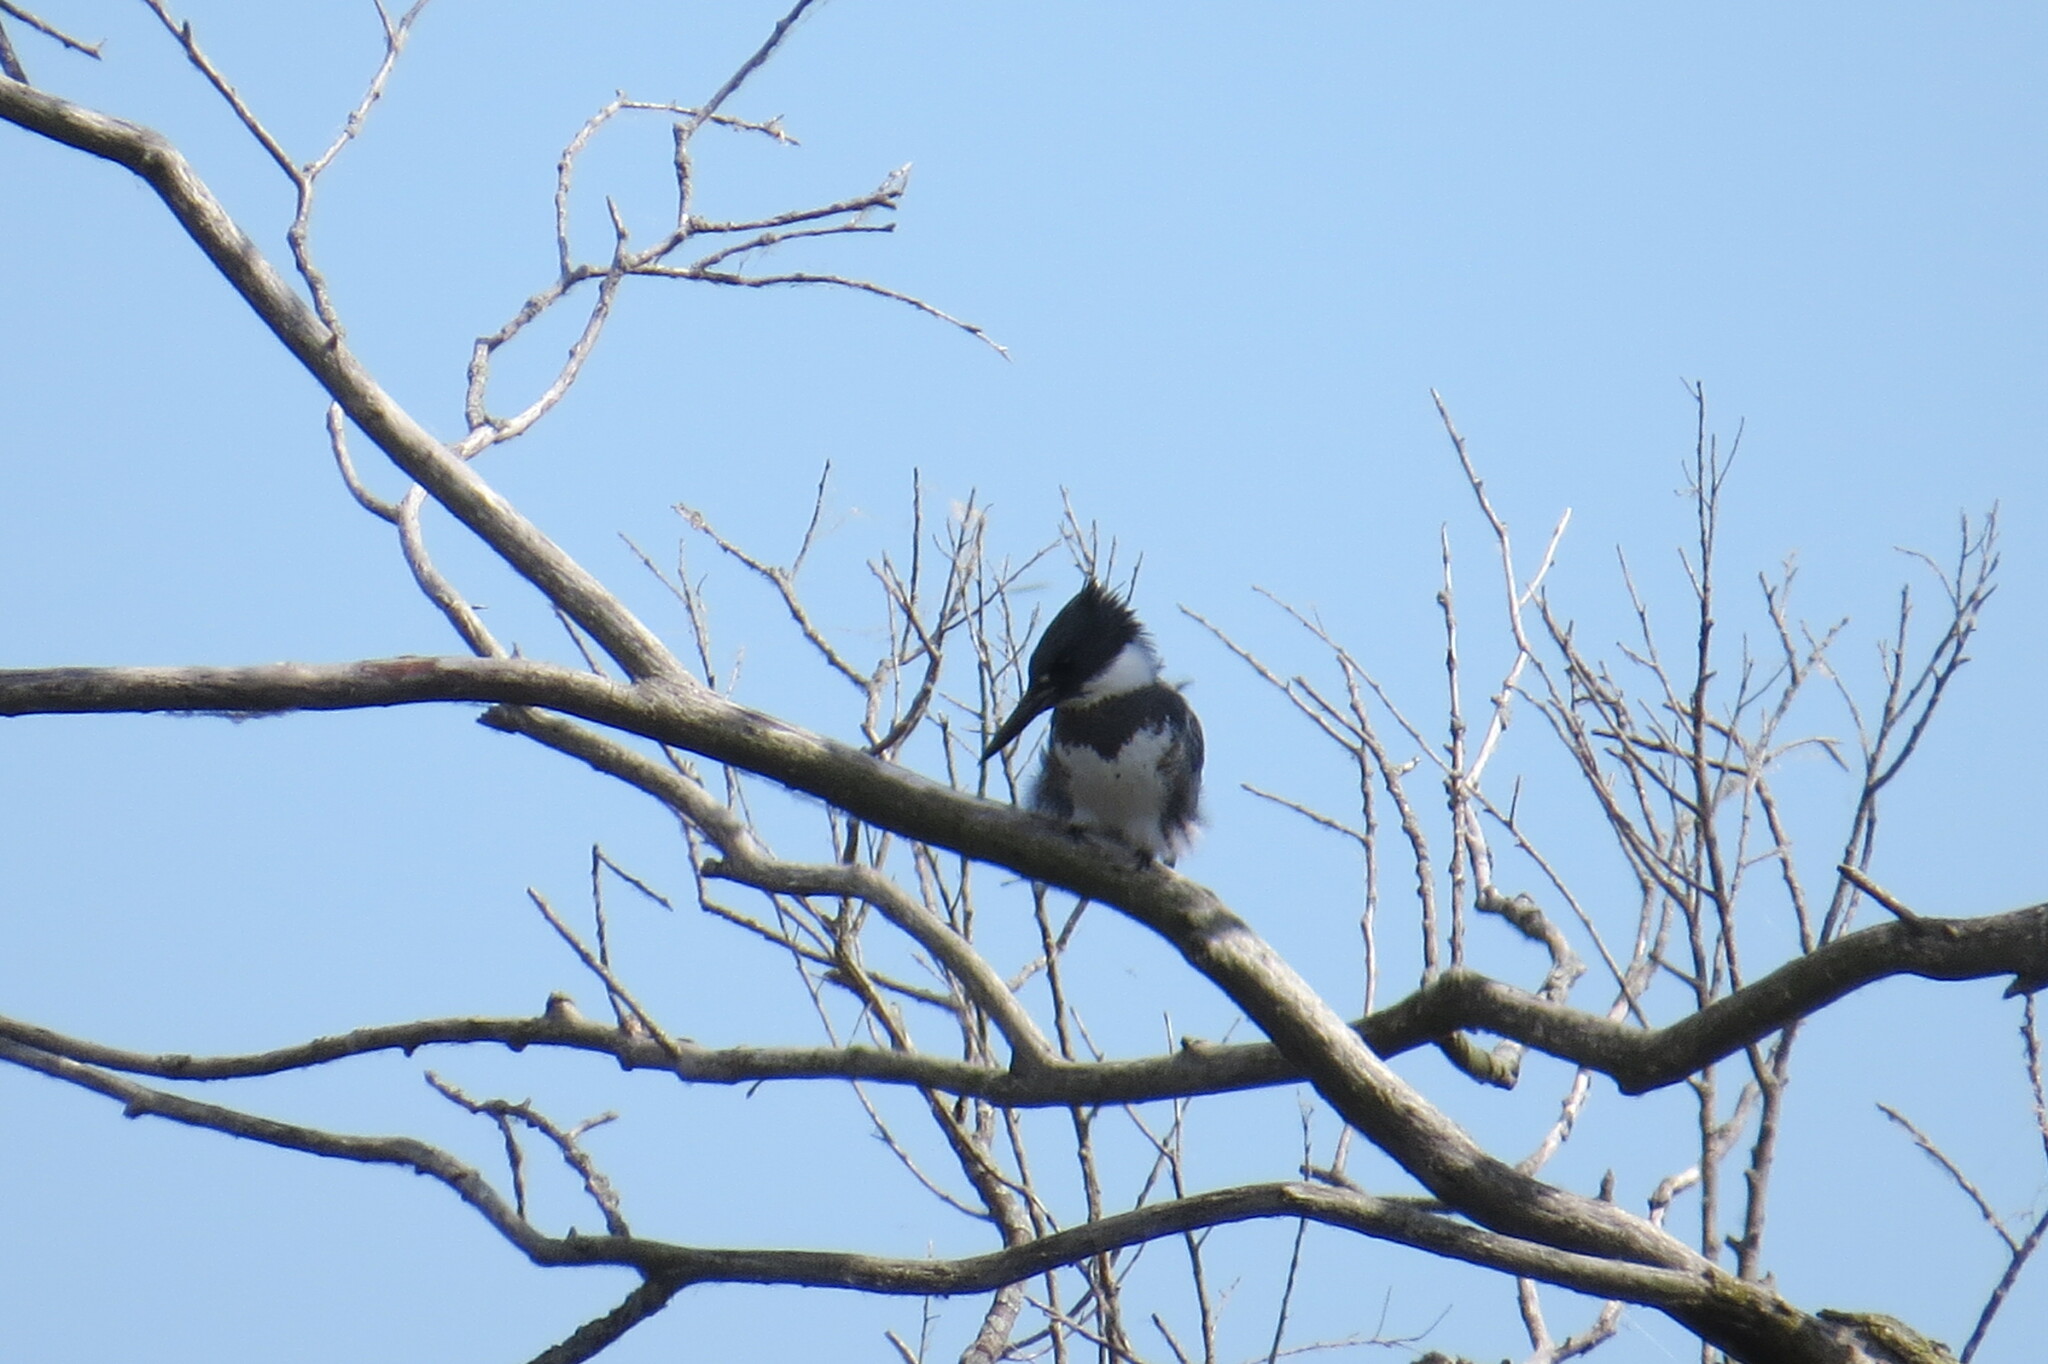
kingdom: Animalia
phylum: Chordata
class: Aves
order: Coraciiformes
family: Alcedinidae
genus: Megaceryle
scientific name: Megaceryle alcyon
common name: Belted kingfisher
